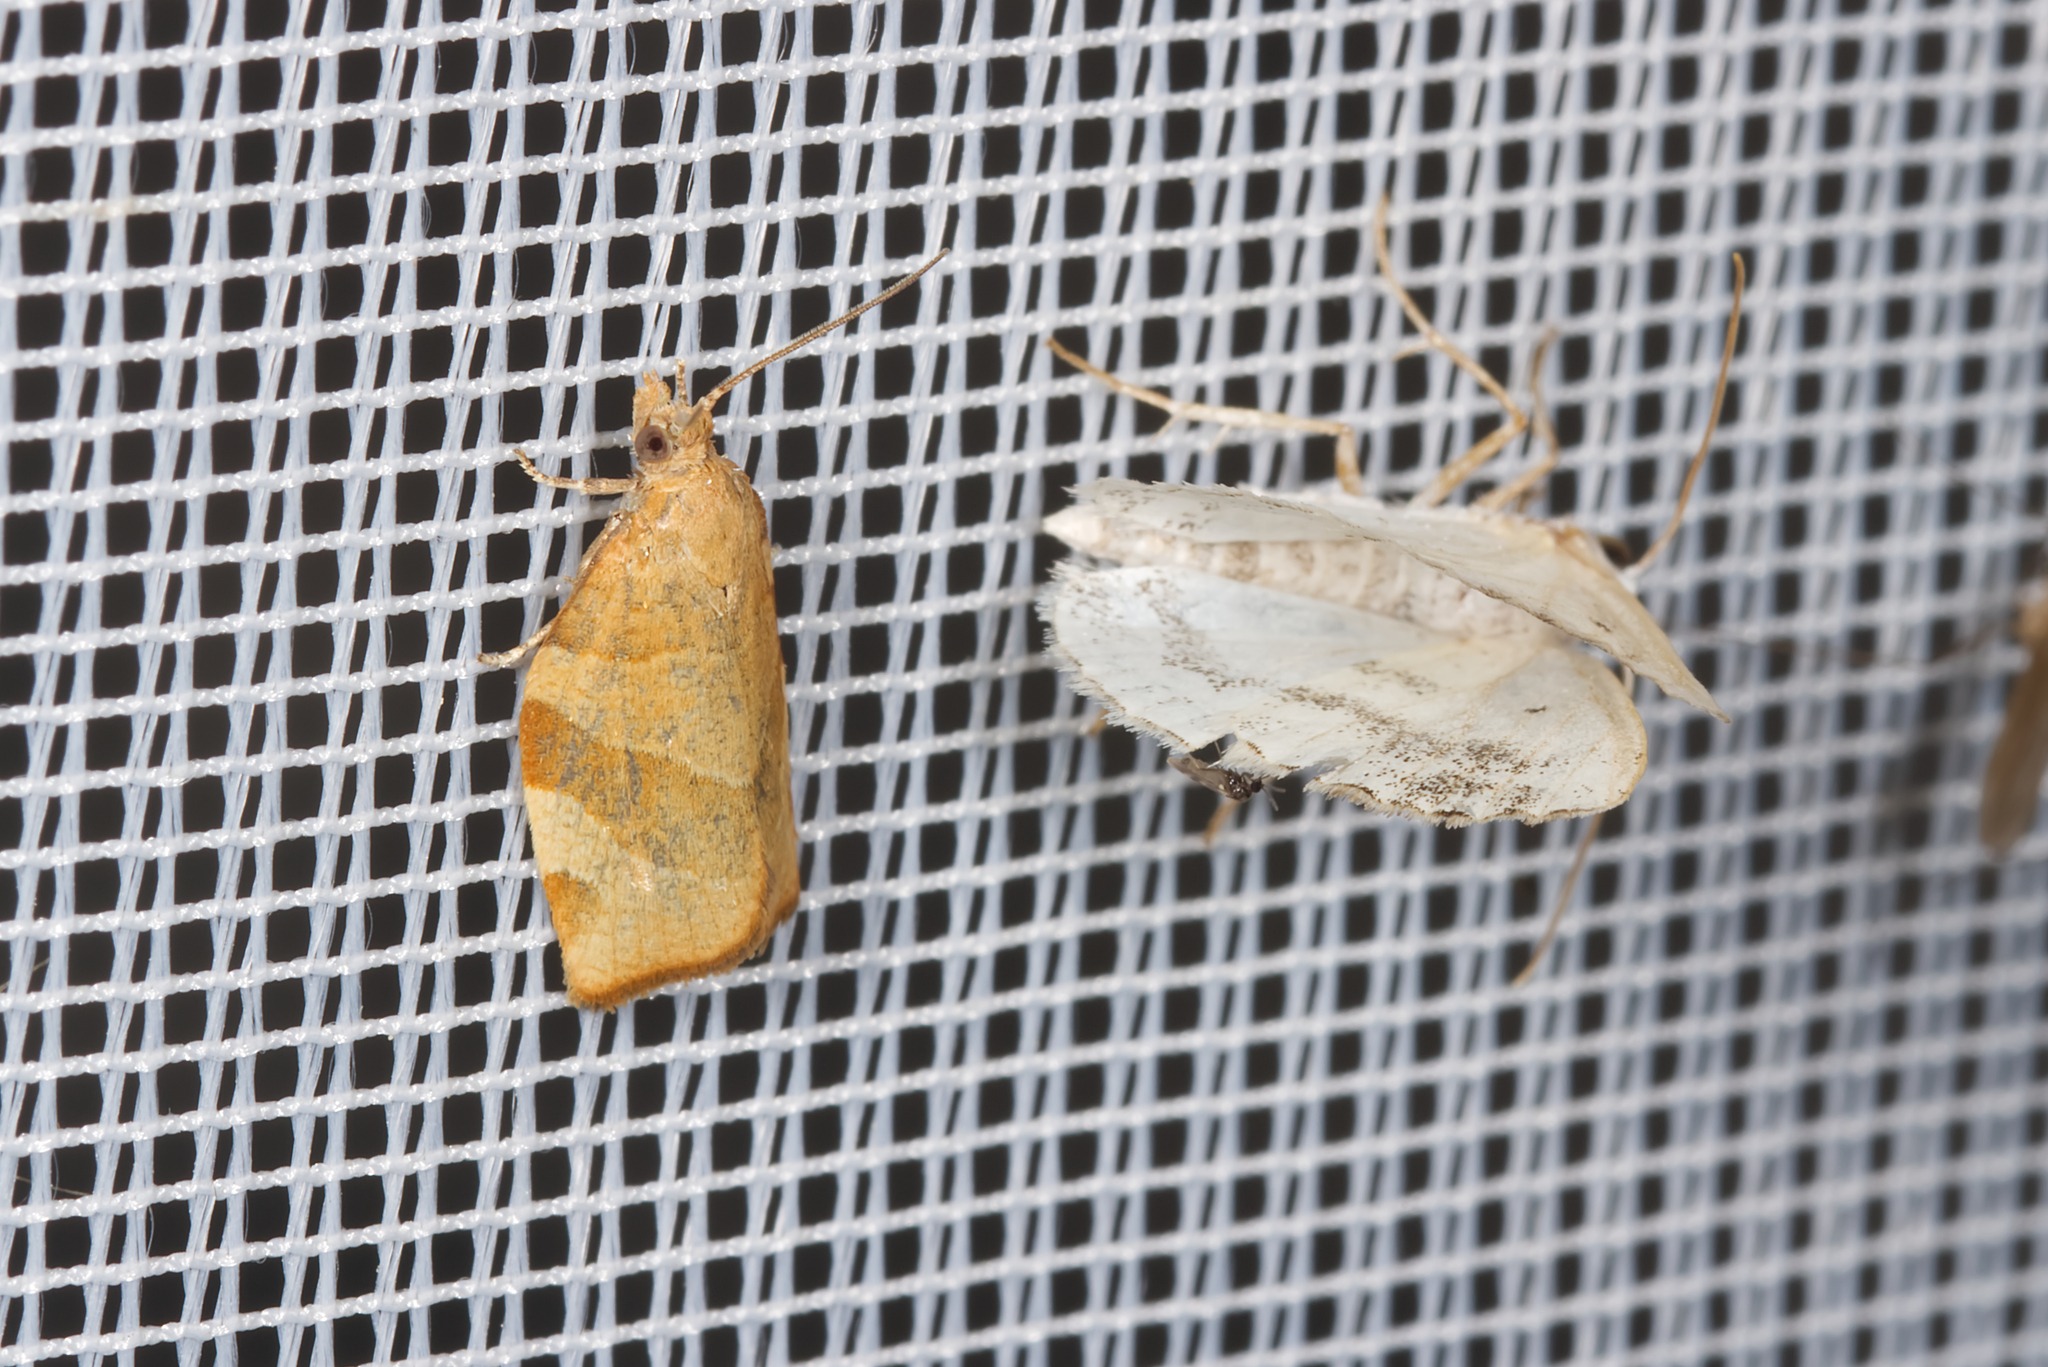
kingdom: Animalia
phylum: Arthropoda
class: Insecta
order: Lepidoptera
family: Geometridae
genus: Lomographa
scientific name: Lomographa temerata
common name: Clouded silver
